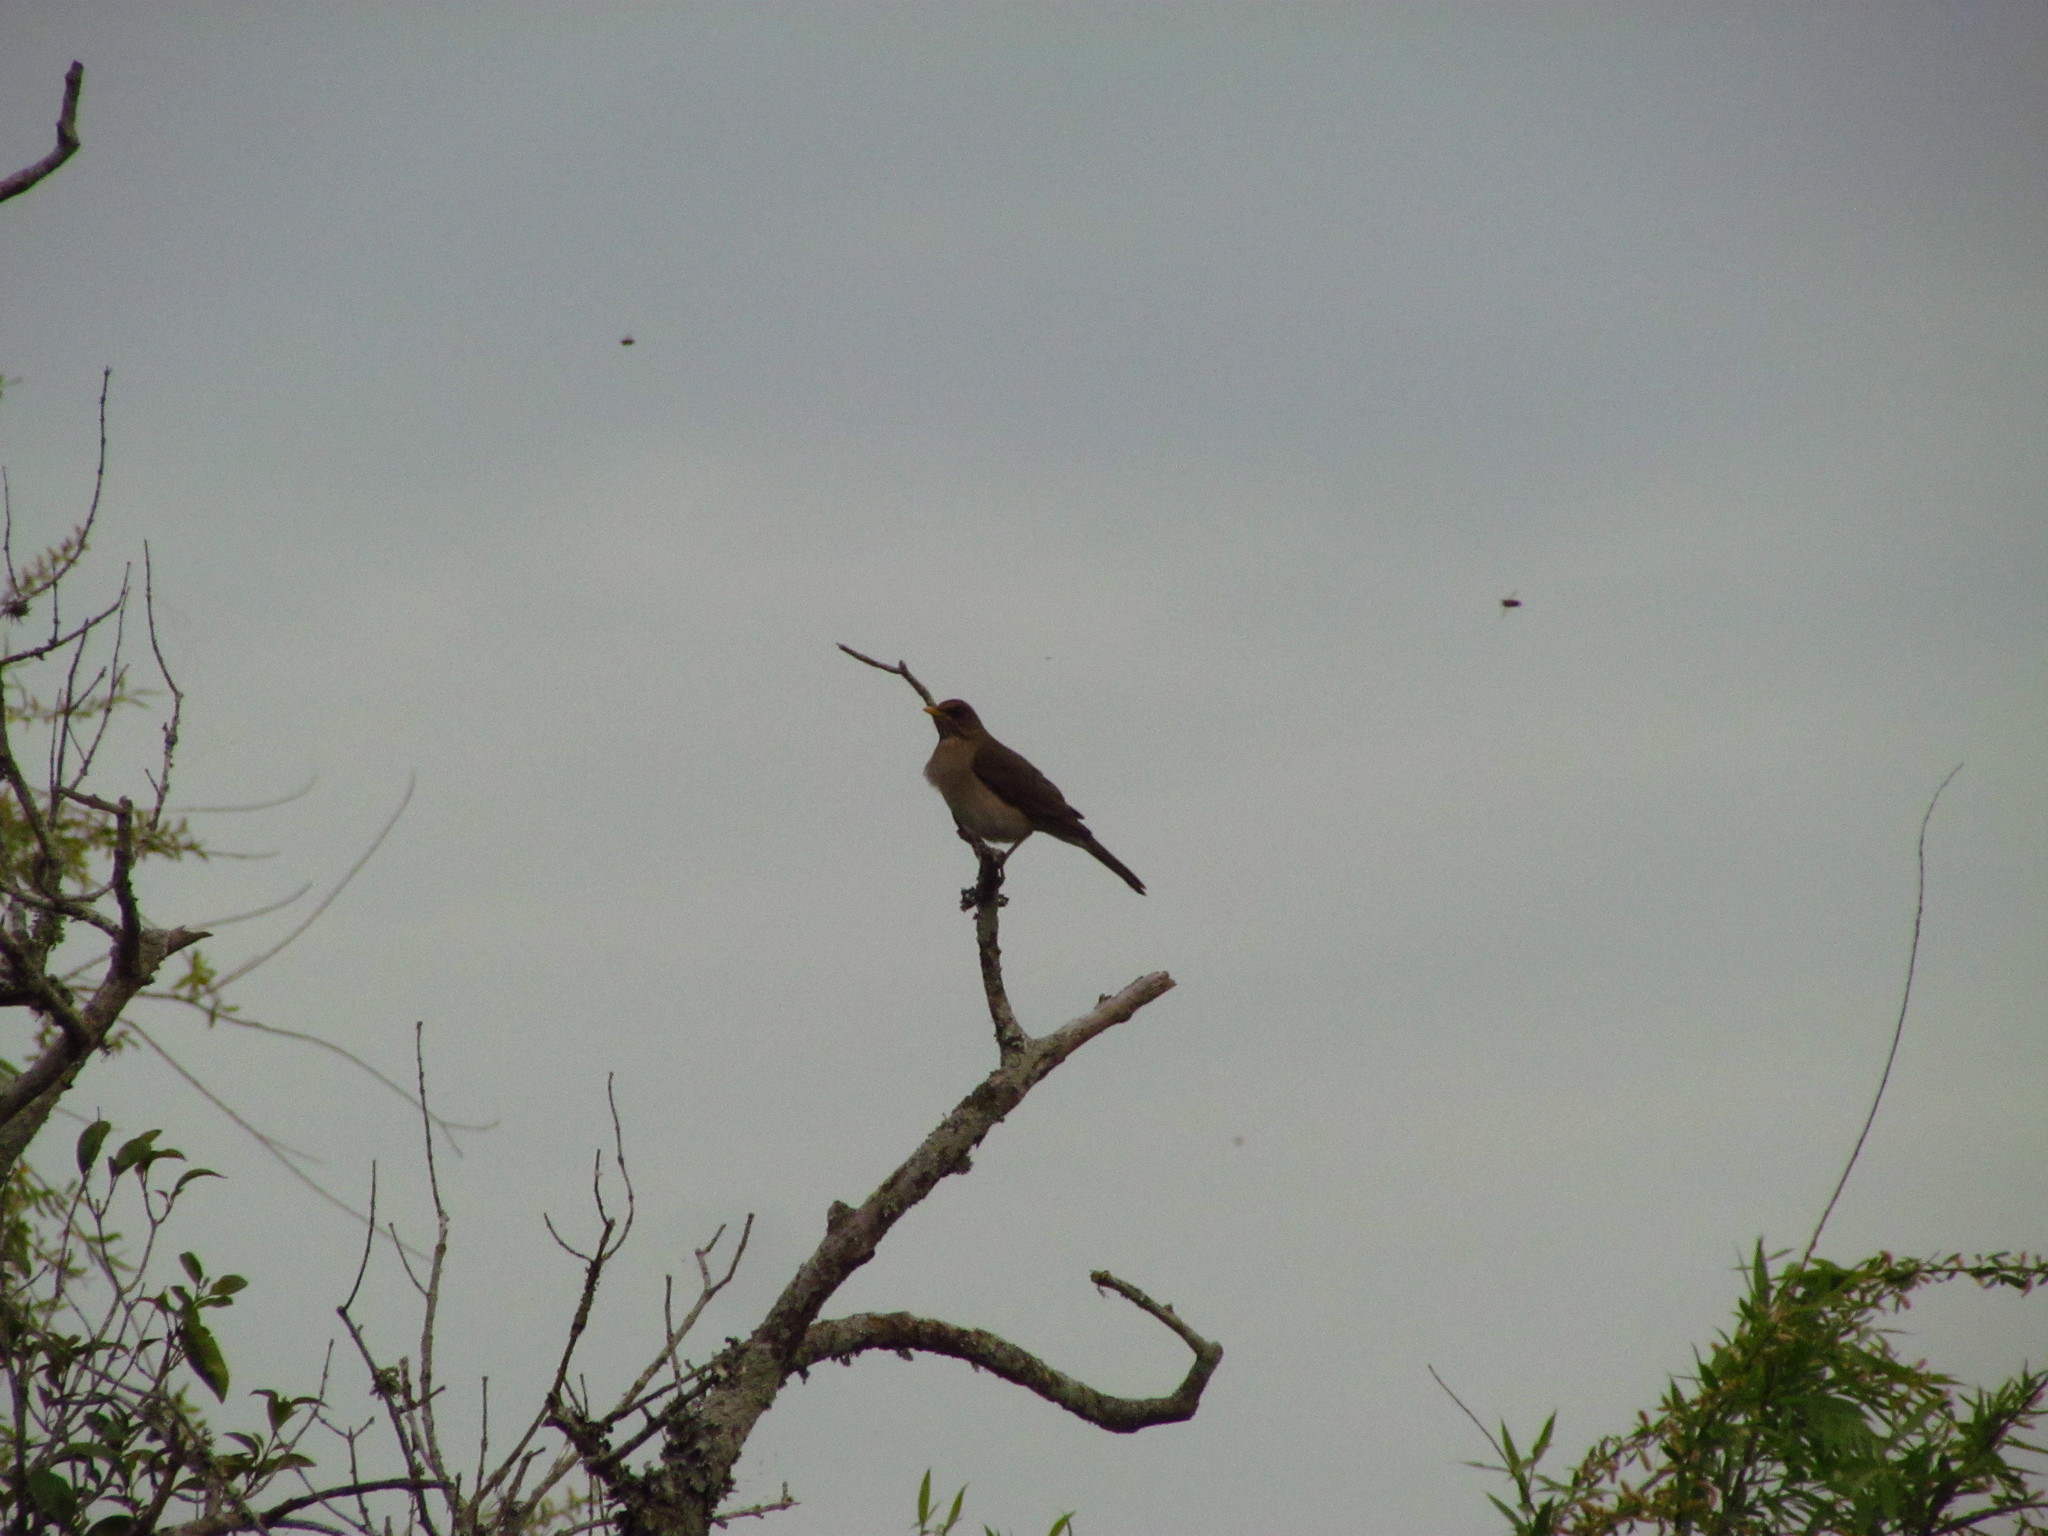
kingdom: Animalia
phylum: Chordata
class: Aves
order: Passeriformes
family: Turdidae
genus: Turdus
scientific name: Turdus amaurochalinus
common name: Creamy-bellied thrush
